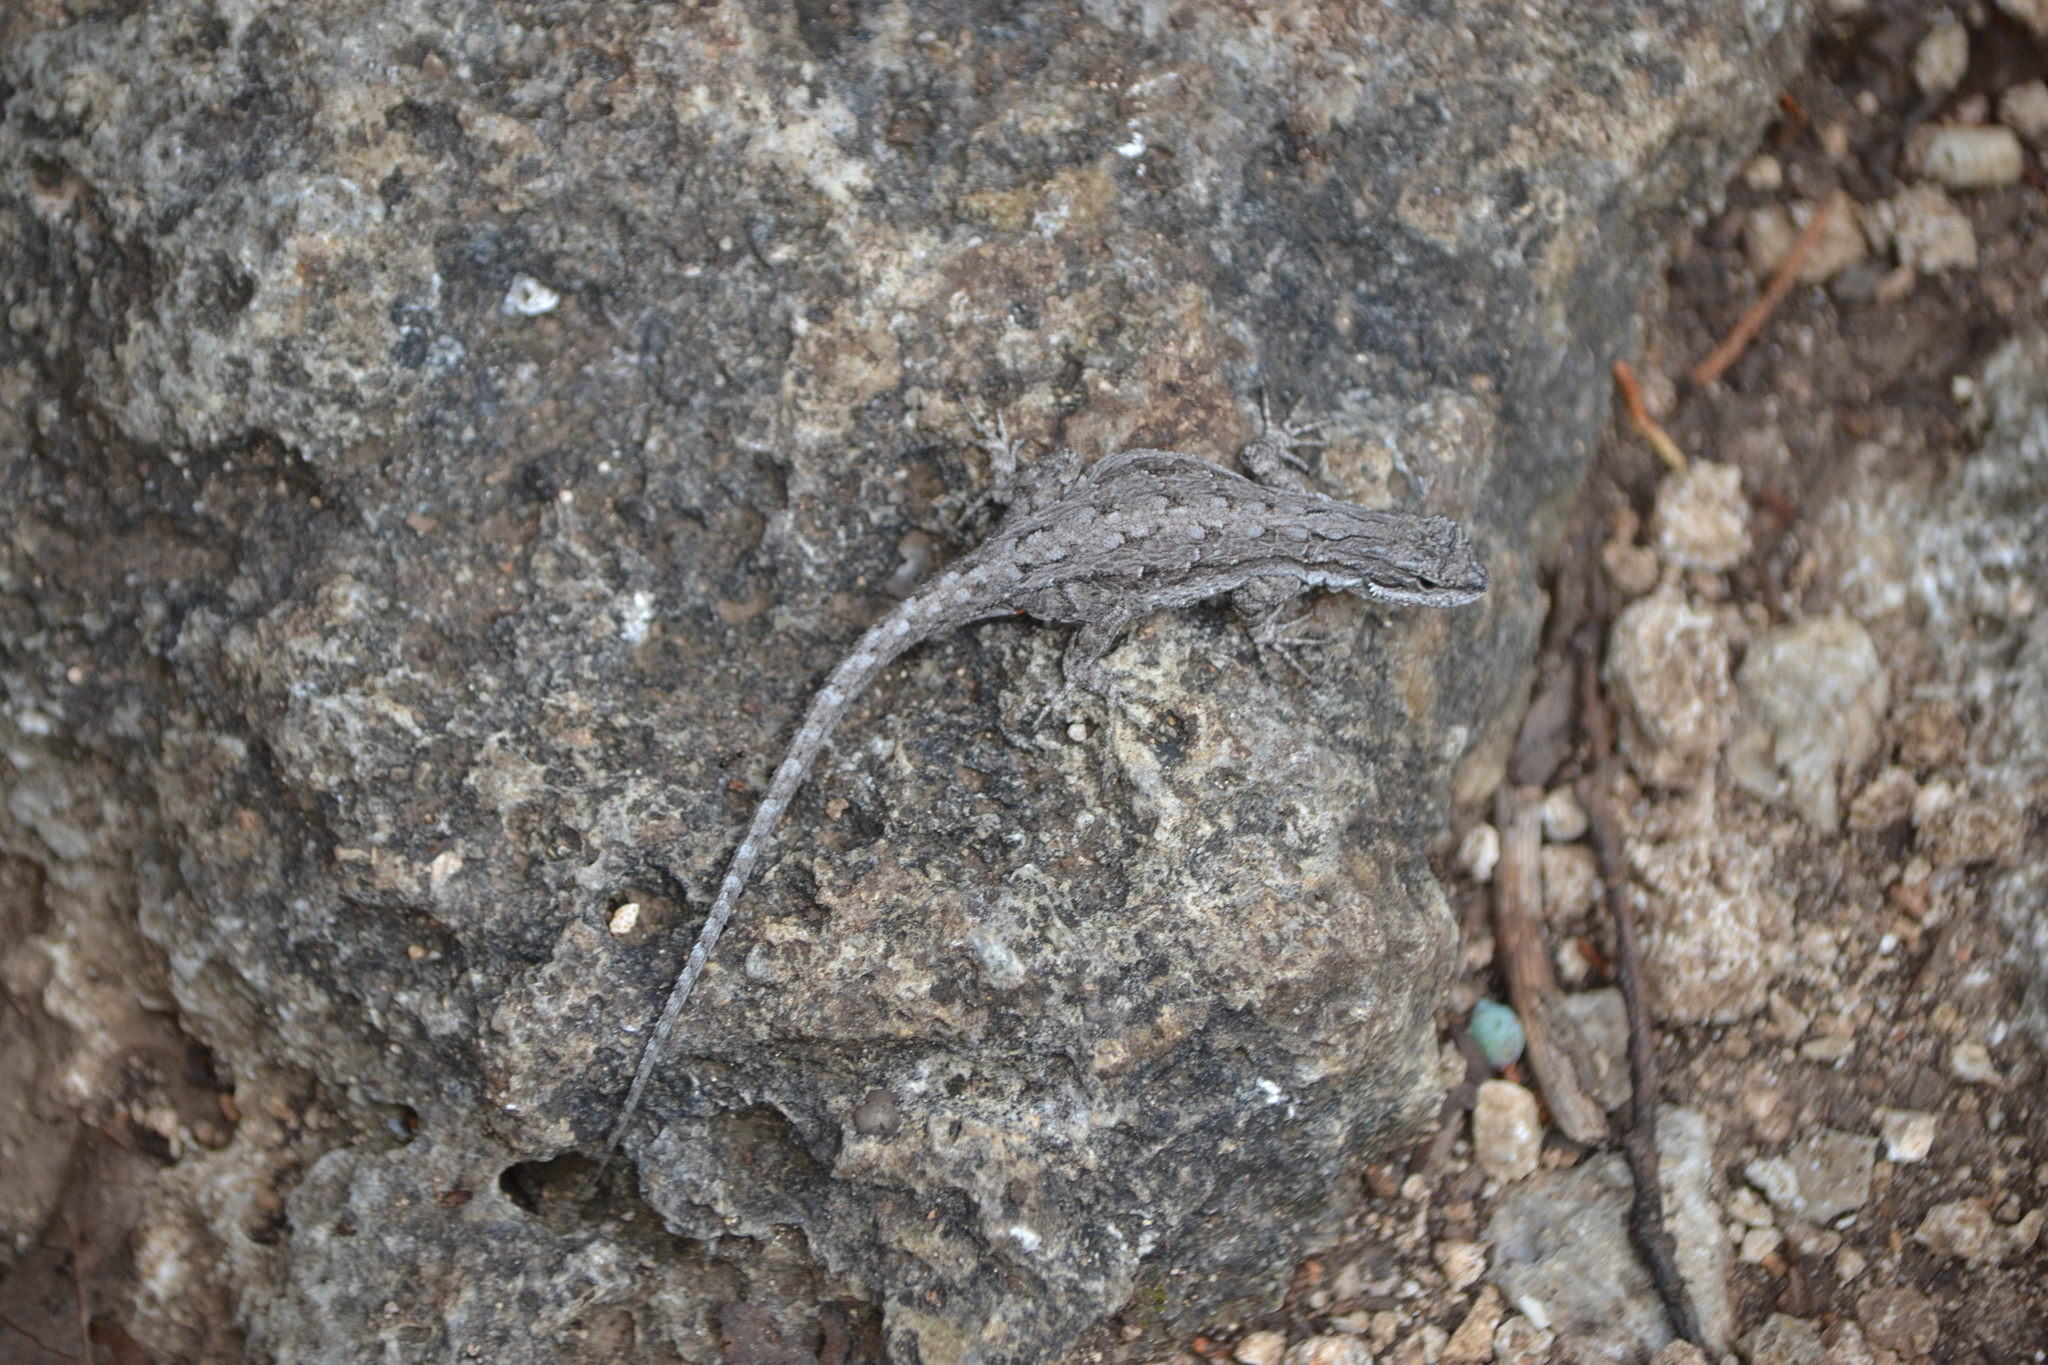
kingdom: Animalia
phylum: Chordata
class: Squamata
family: Phrynosomatidae
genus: Urosaurus
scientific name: Urosaurus ornatus
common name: Ornate tree lizard
